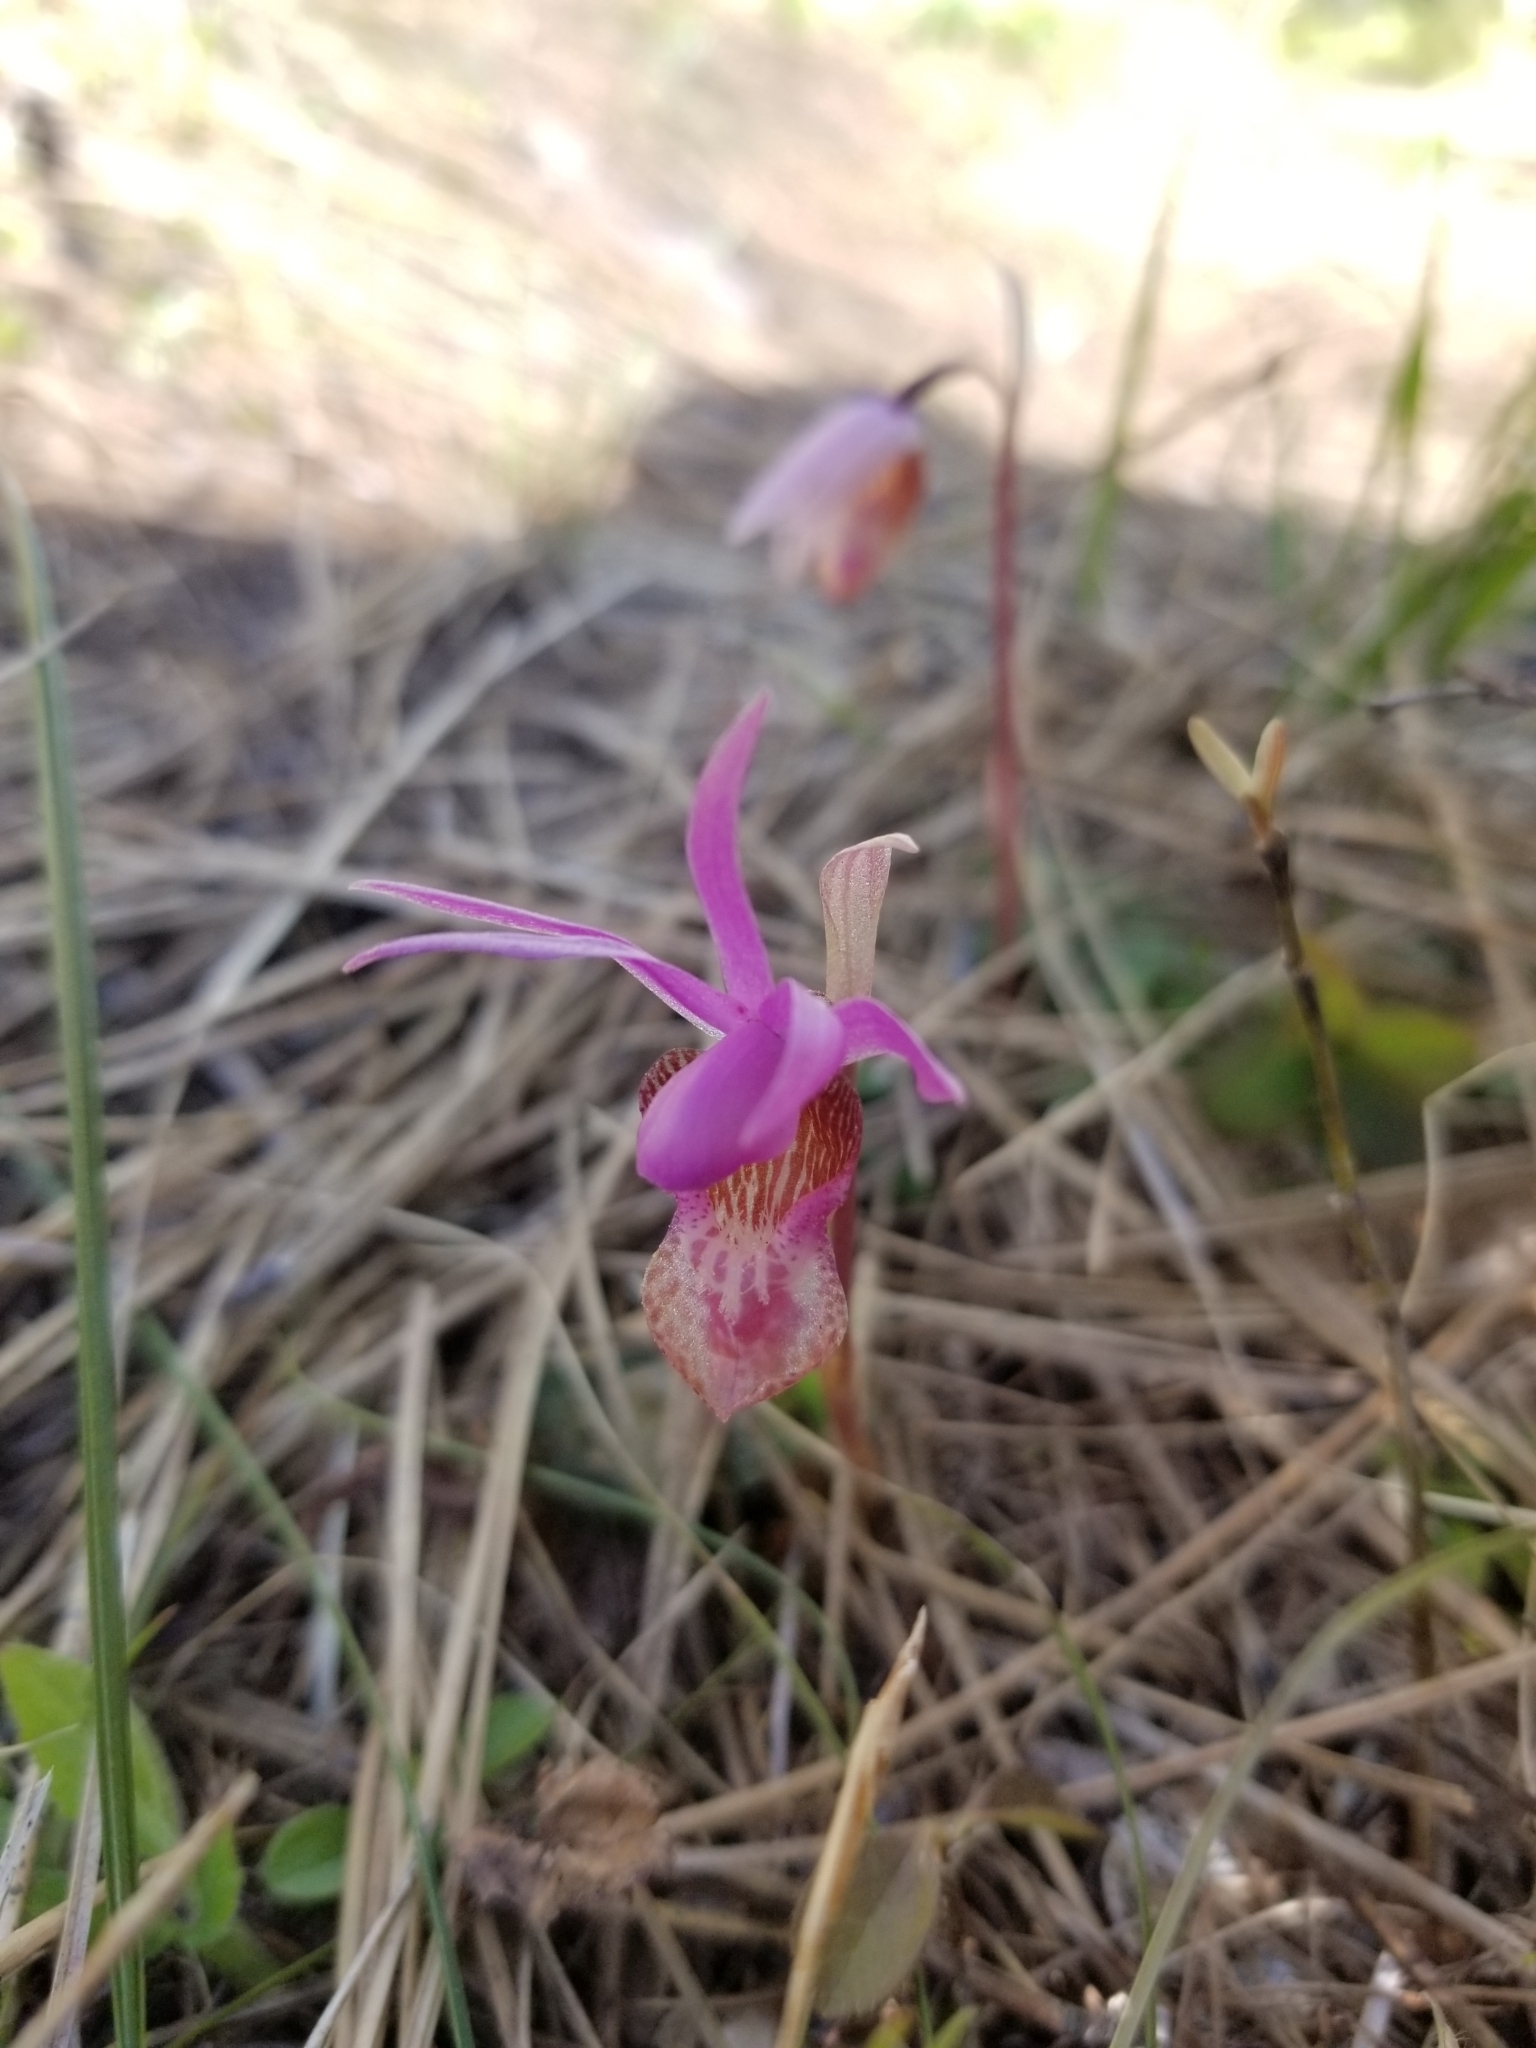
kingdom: Plantae
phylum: Tracheophyta
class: Liliopsida
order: Asparagales
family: Orchidaceae
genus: Calypso
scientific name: Calypso bulbosa
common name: Calypso
